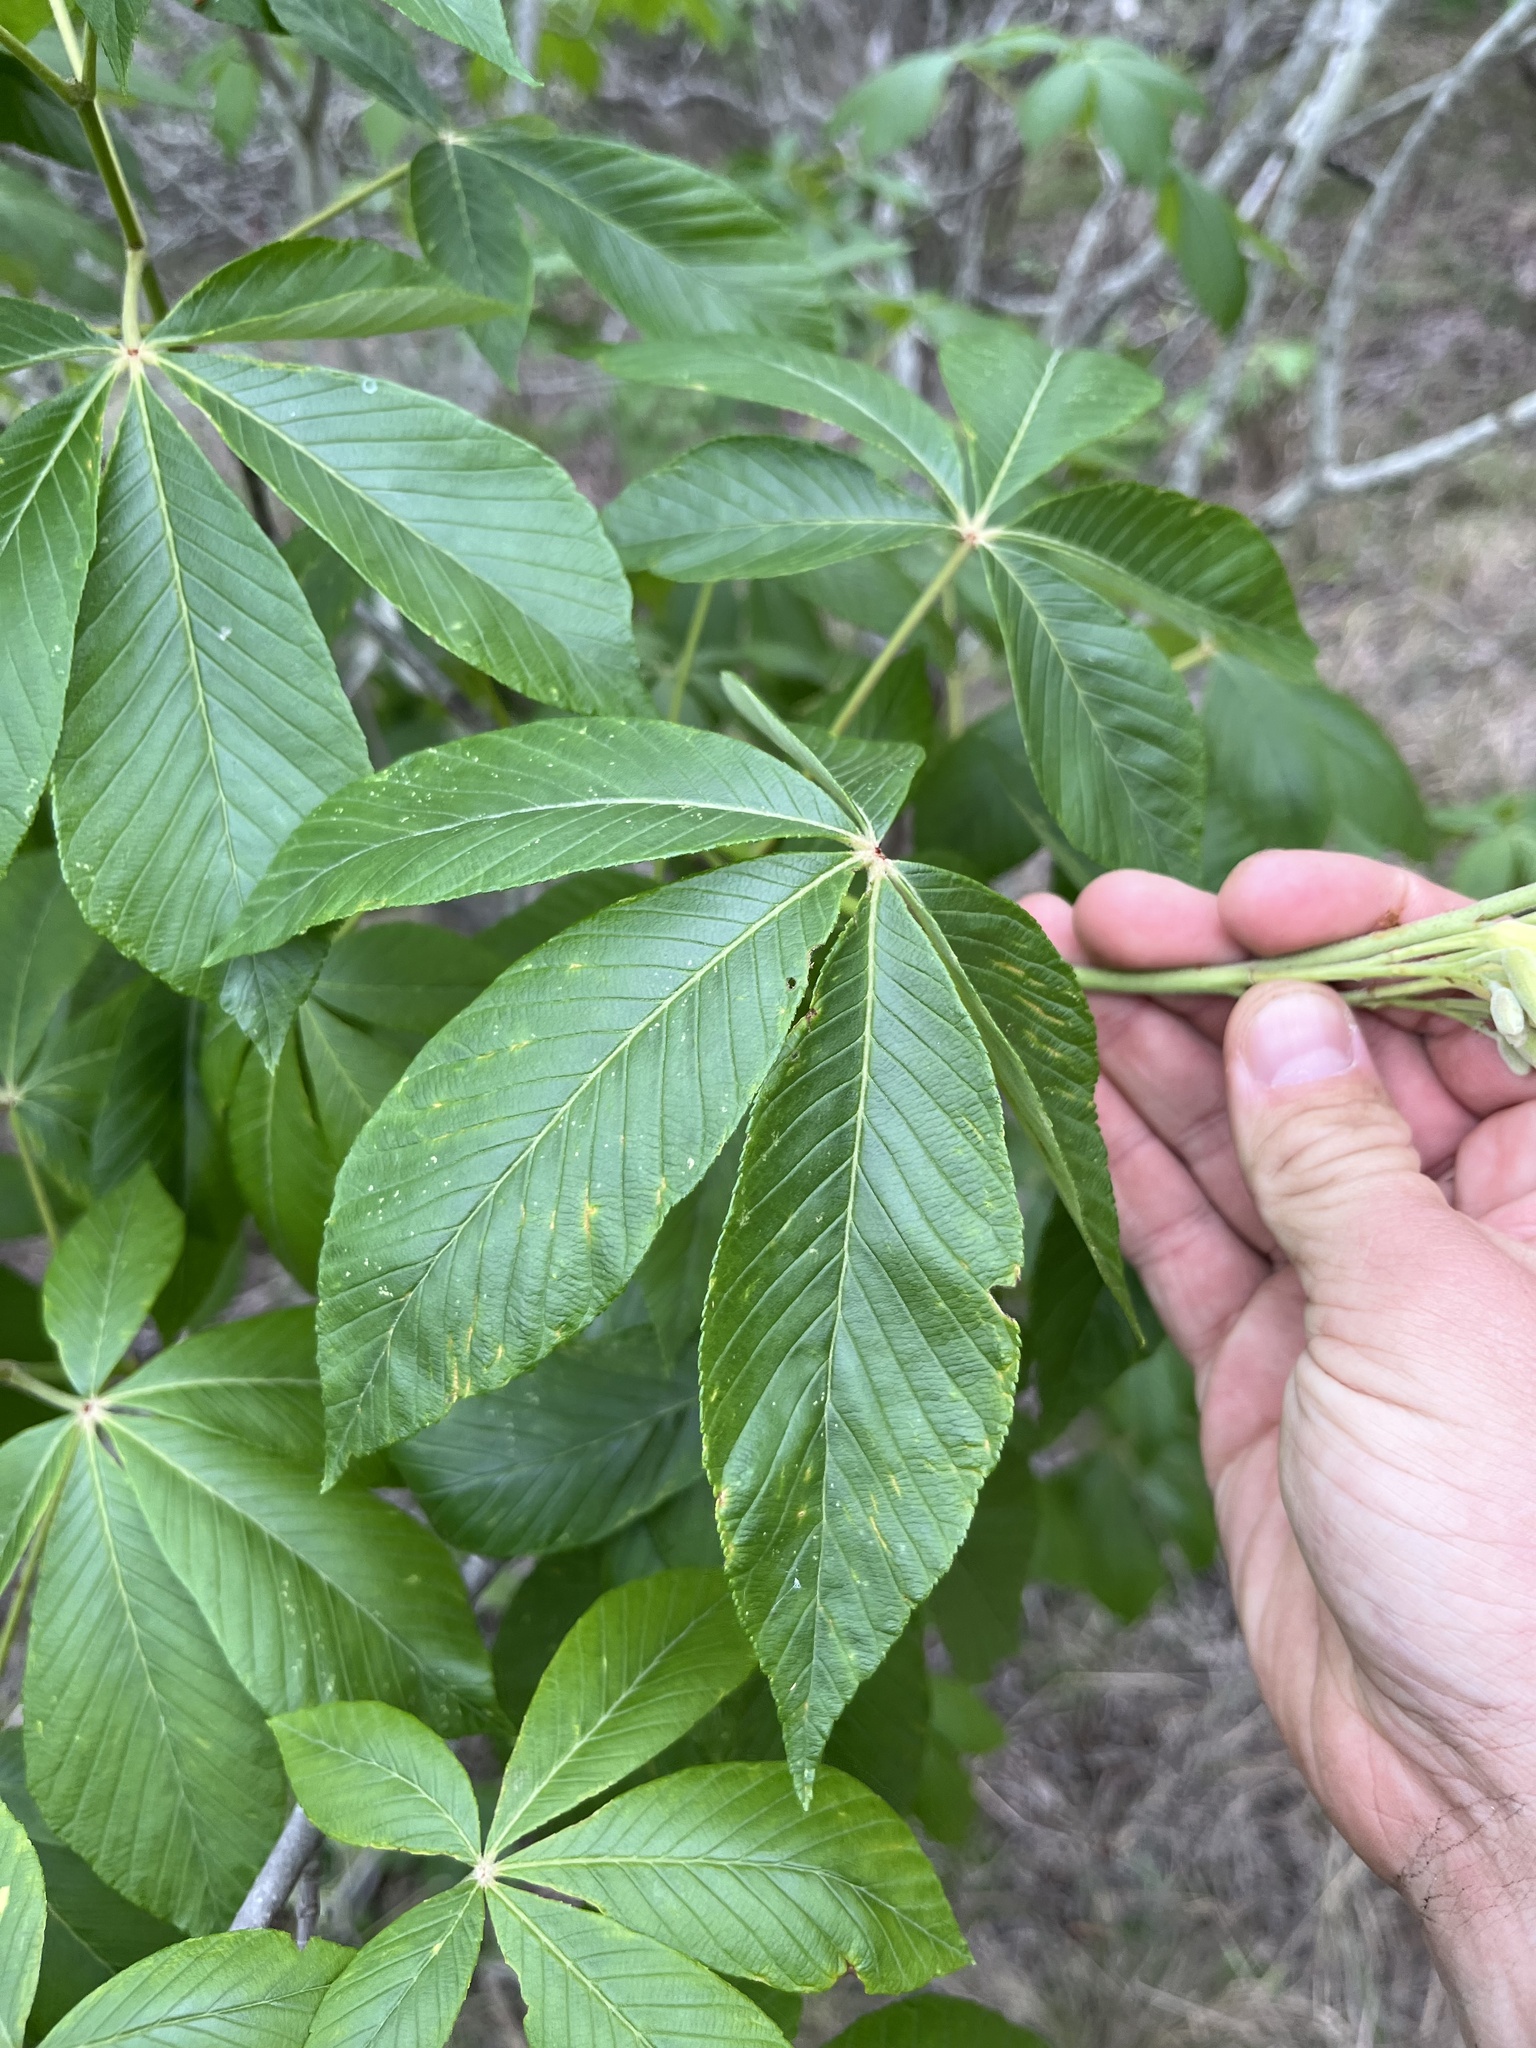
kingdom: Plantae
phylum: Tracheophyta
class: Magnoliopsida
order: Sapindales
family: Sapindaceae
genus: Aesculus
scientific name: Aesculus pavia
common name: Red buckeye
